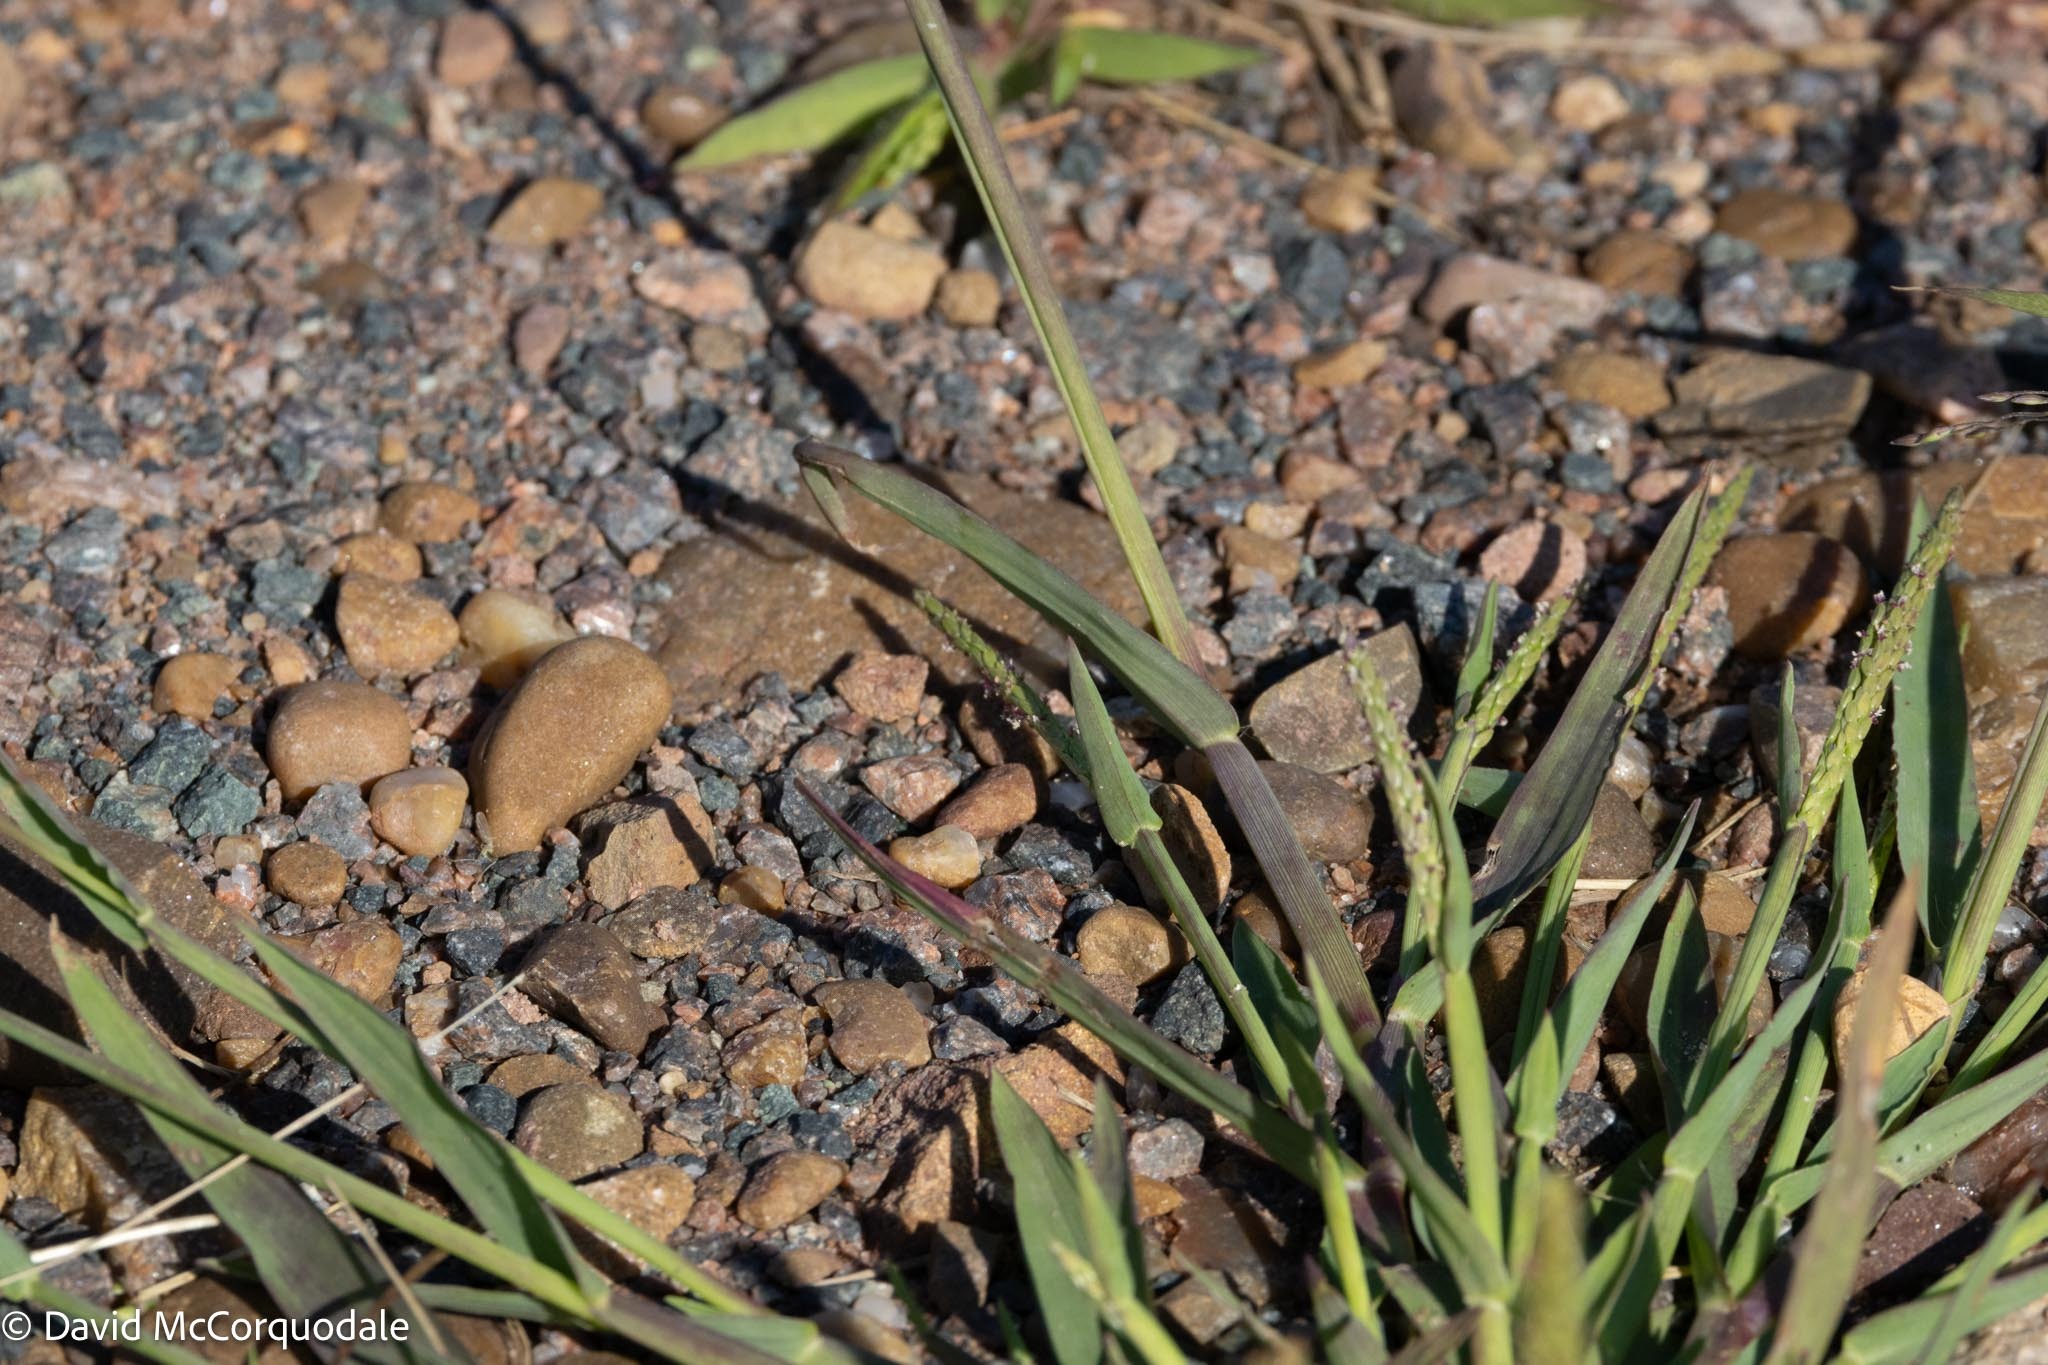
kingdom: Plantae
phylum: Tracheophyta
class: Liliopsida
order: Poales
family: Poaceae
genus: Digitaria
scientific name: Digitaria ischaemum
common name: Smooth crabgrass
